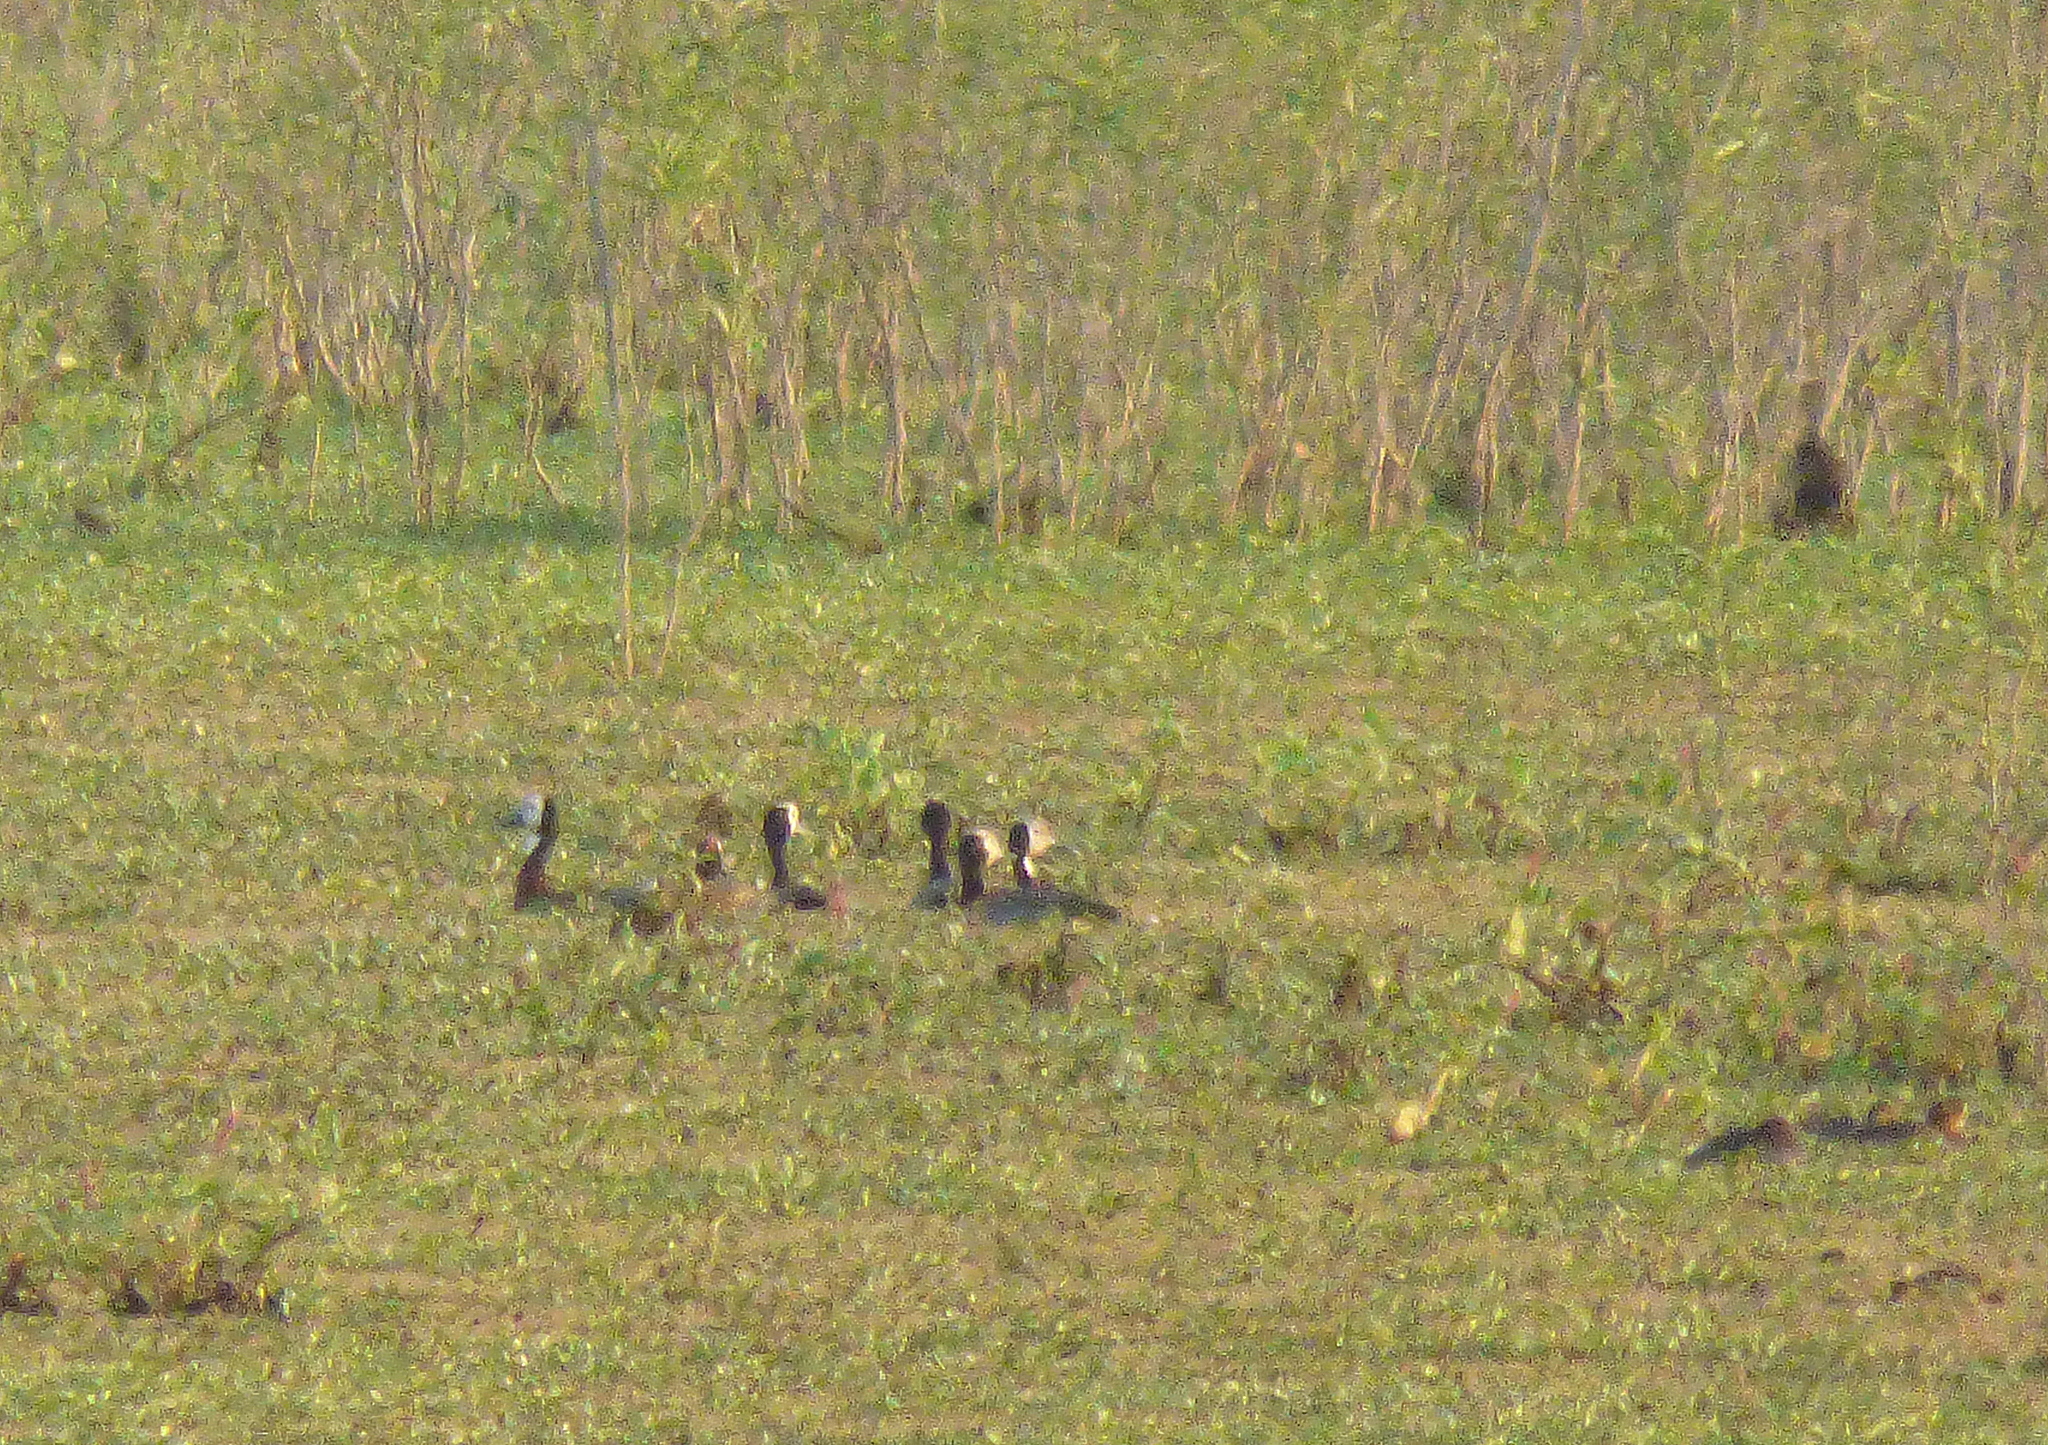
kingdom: Animalia
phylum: Chordata
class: Aves
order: Anseriformes
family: Anatidae
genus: Dendrocygna
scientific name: Dendrocygna viduata
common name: White-faced whistling duck
